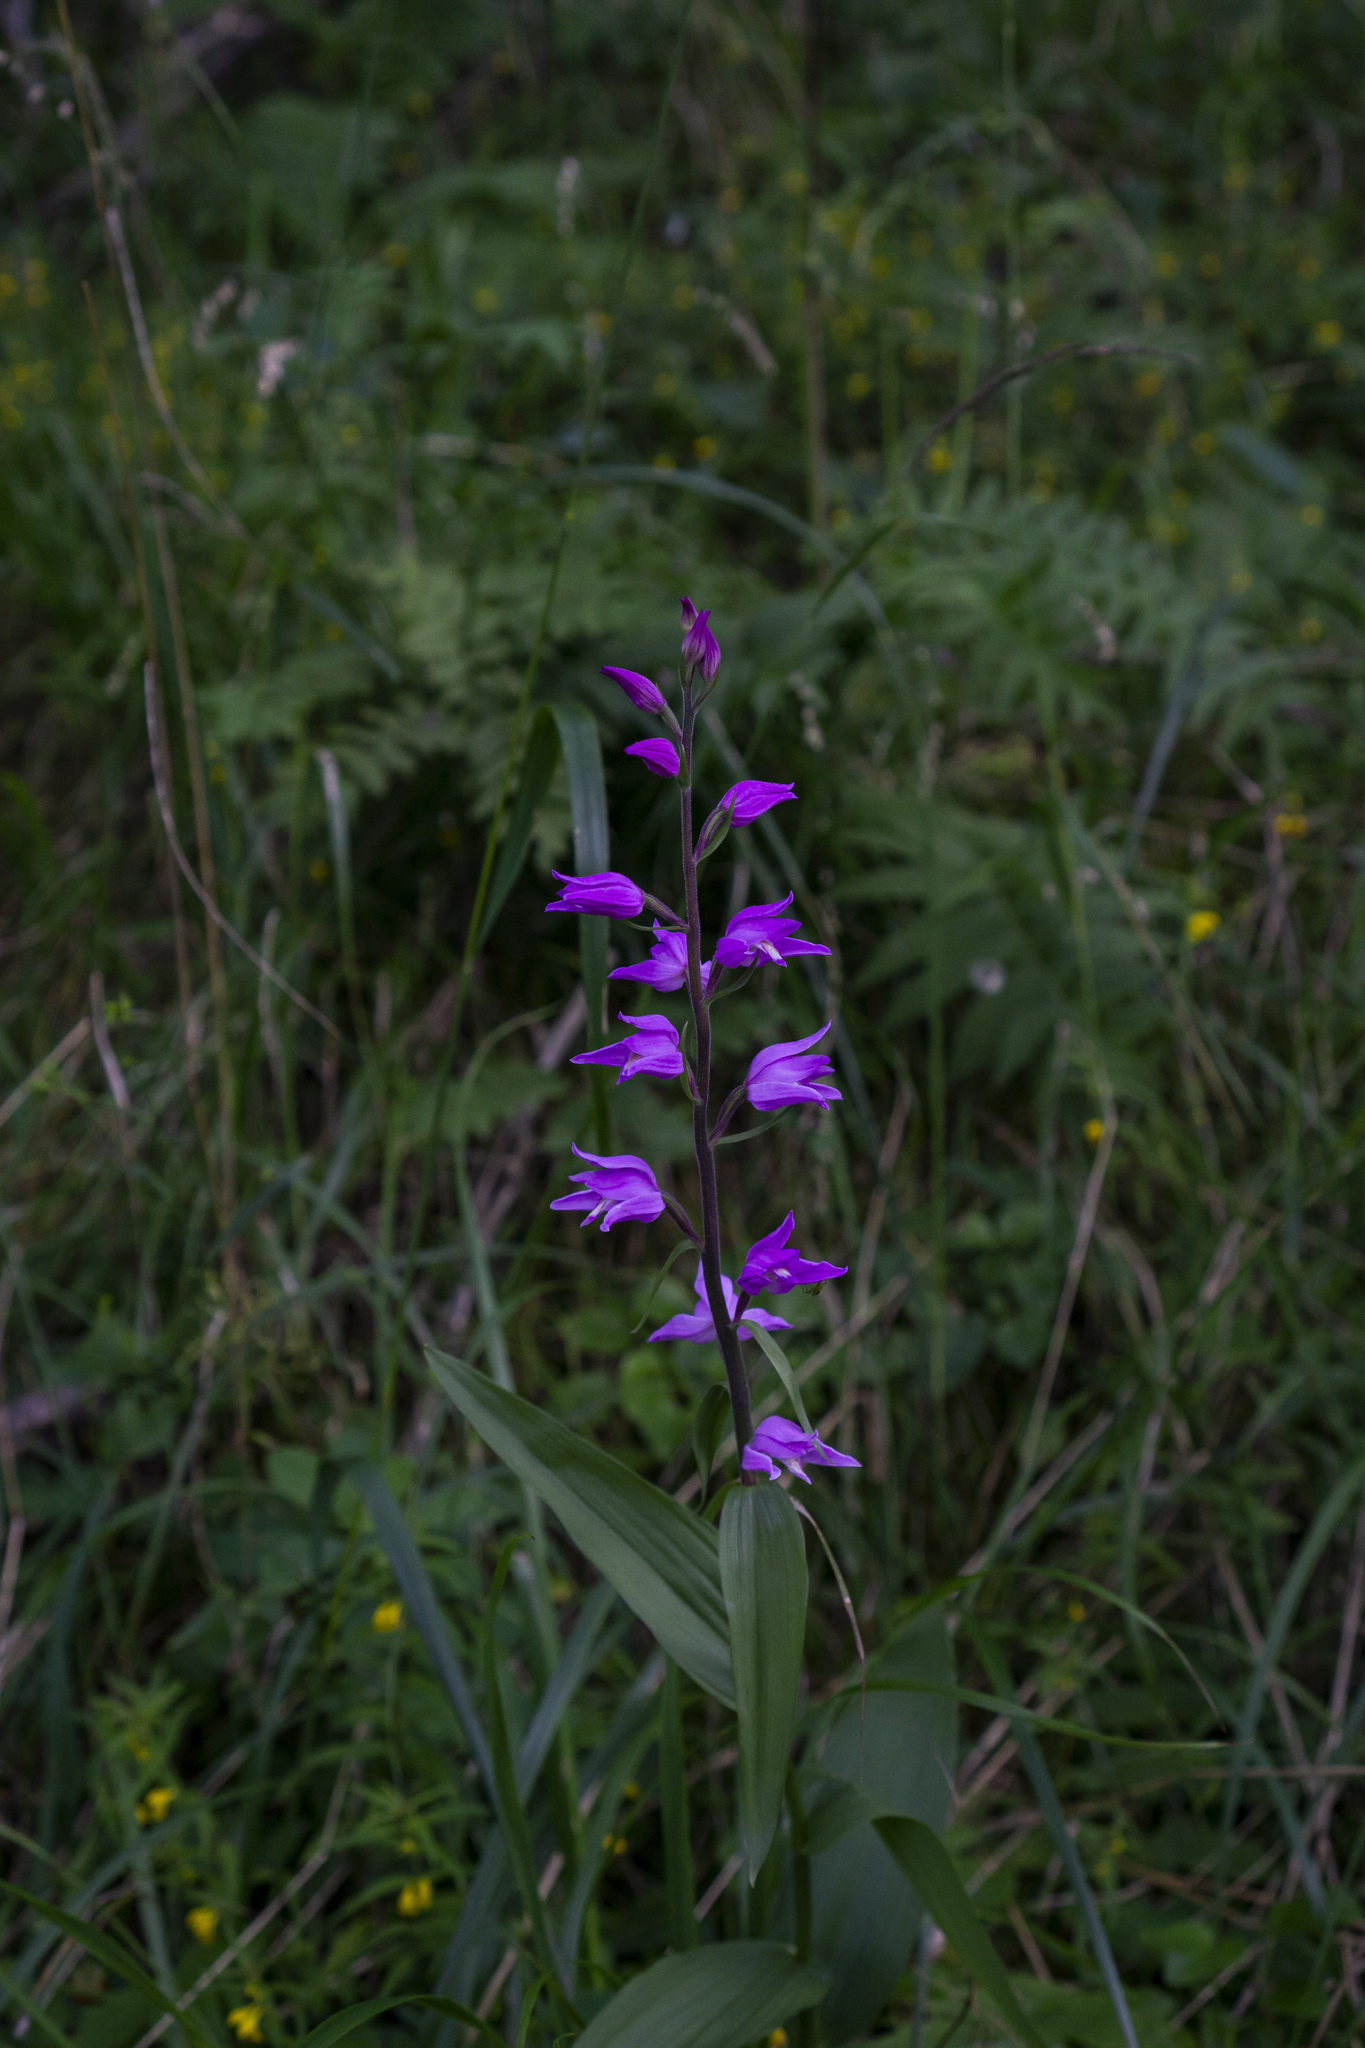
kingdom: Plantae
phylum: Tracheophyta
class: Liliopsida
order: Asparagales
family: Orchidaceae
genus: Cephalanthera
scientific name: Cephalanthera rubra
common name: Red helleborine
